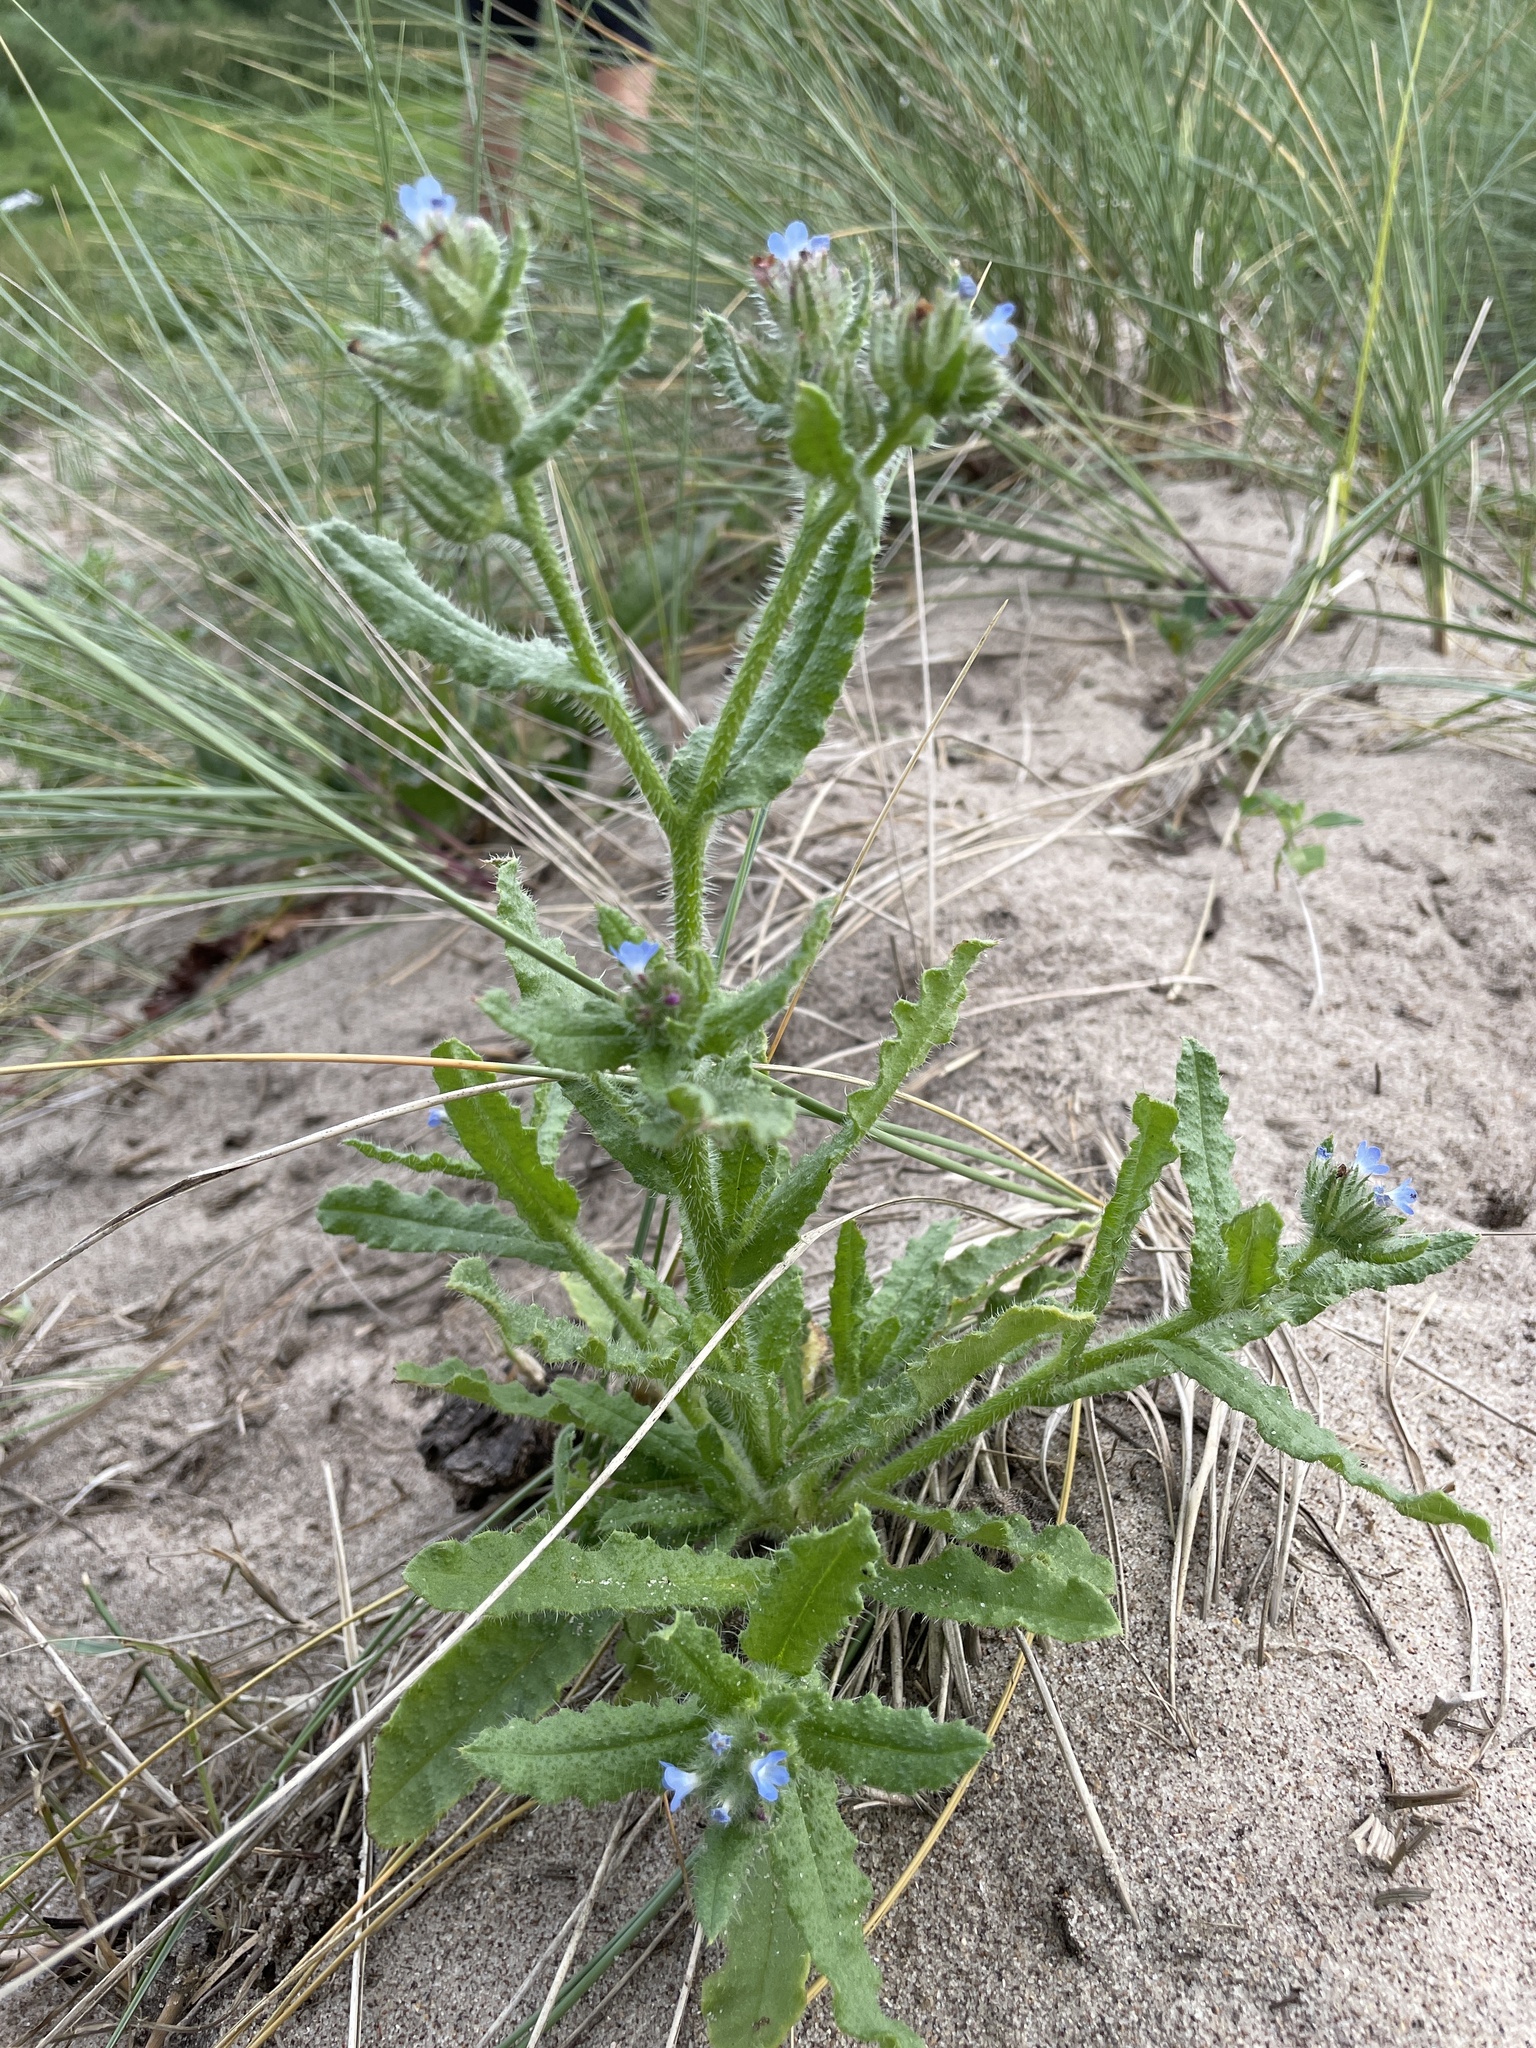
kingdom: Plantae
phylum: Tracheophyta
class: Magnoliopsida
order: Boraginales
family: Boraginaceae
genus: Lycopsis
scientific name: Lycopsis arvensis
